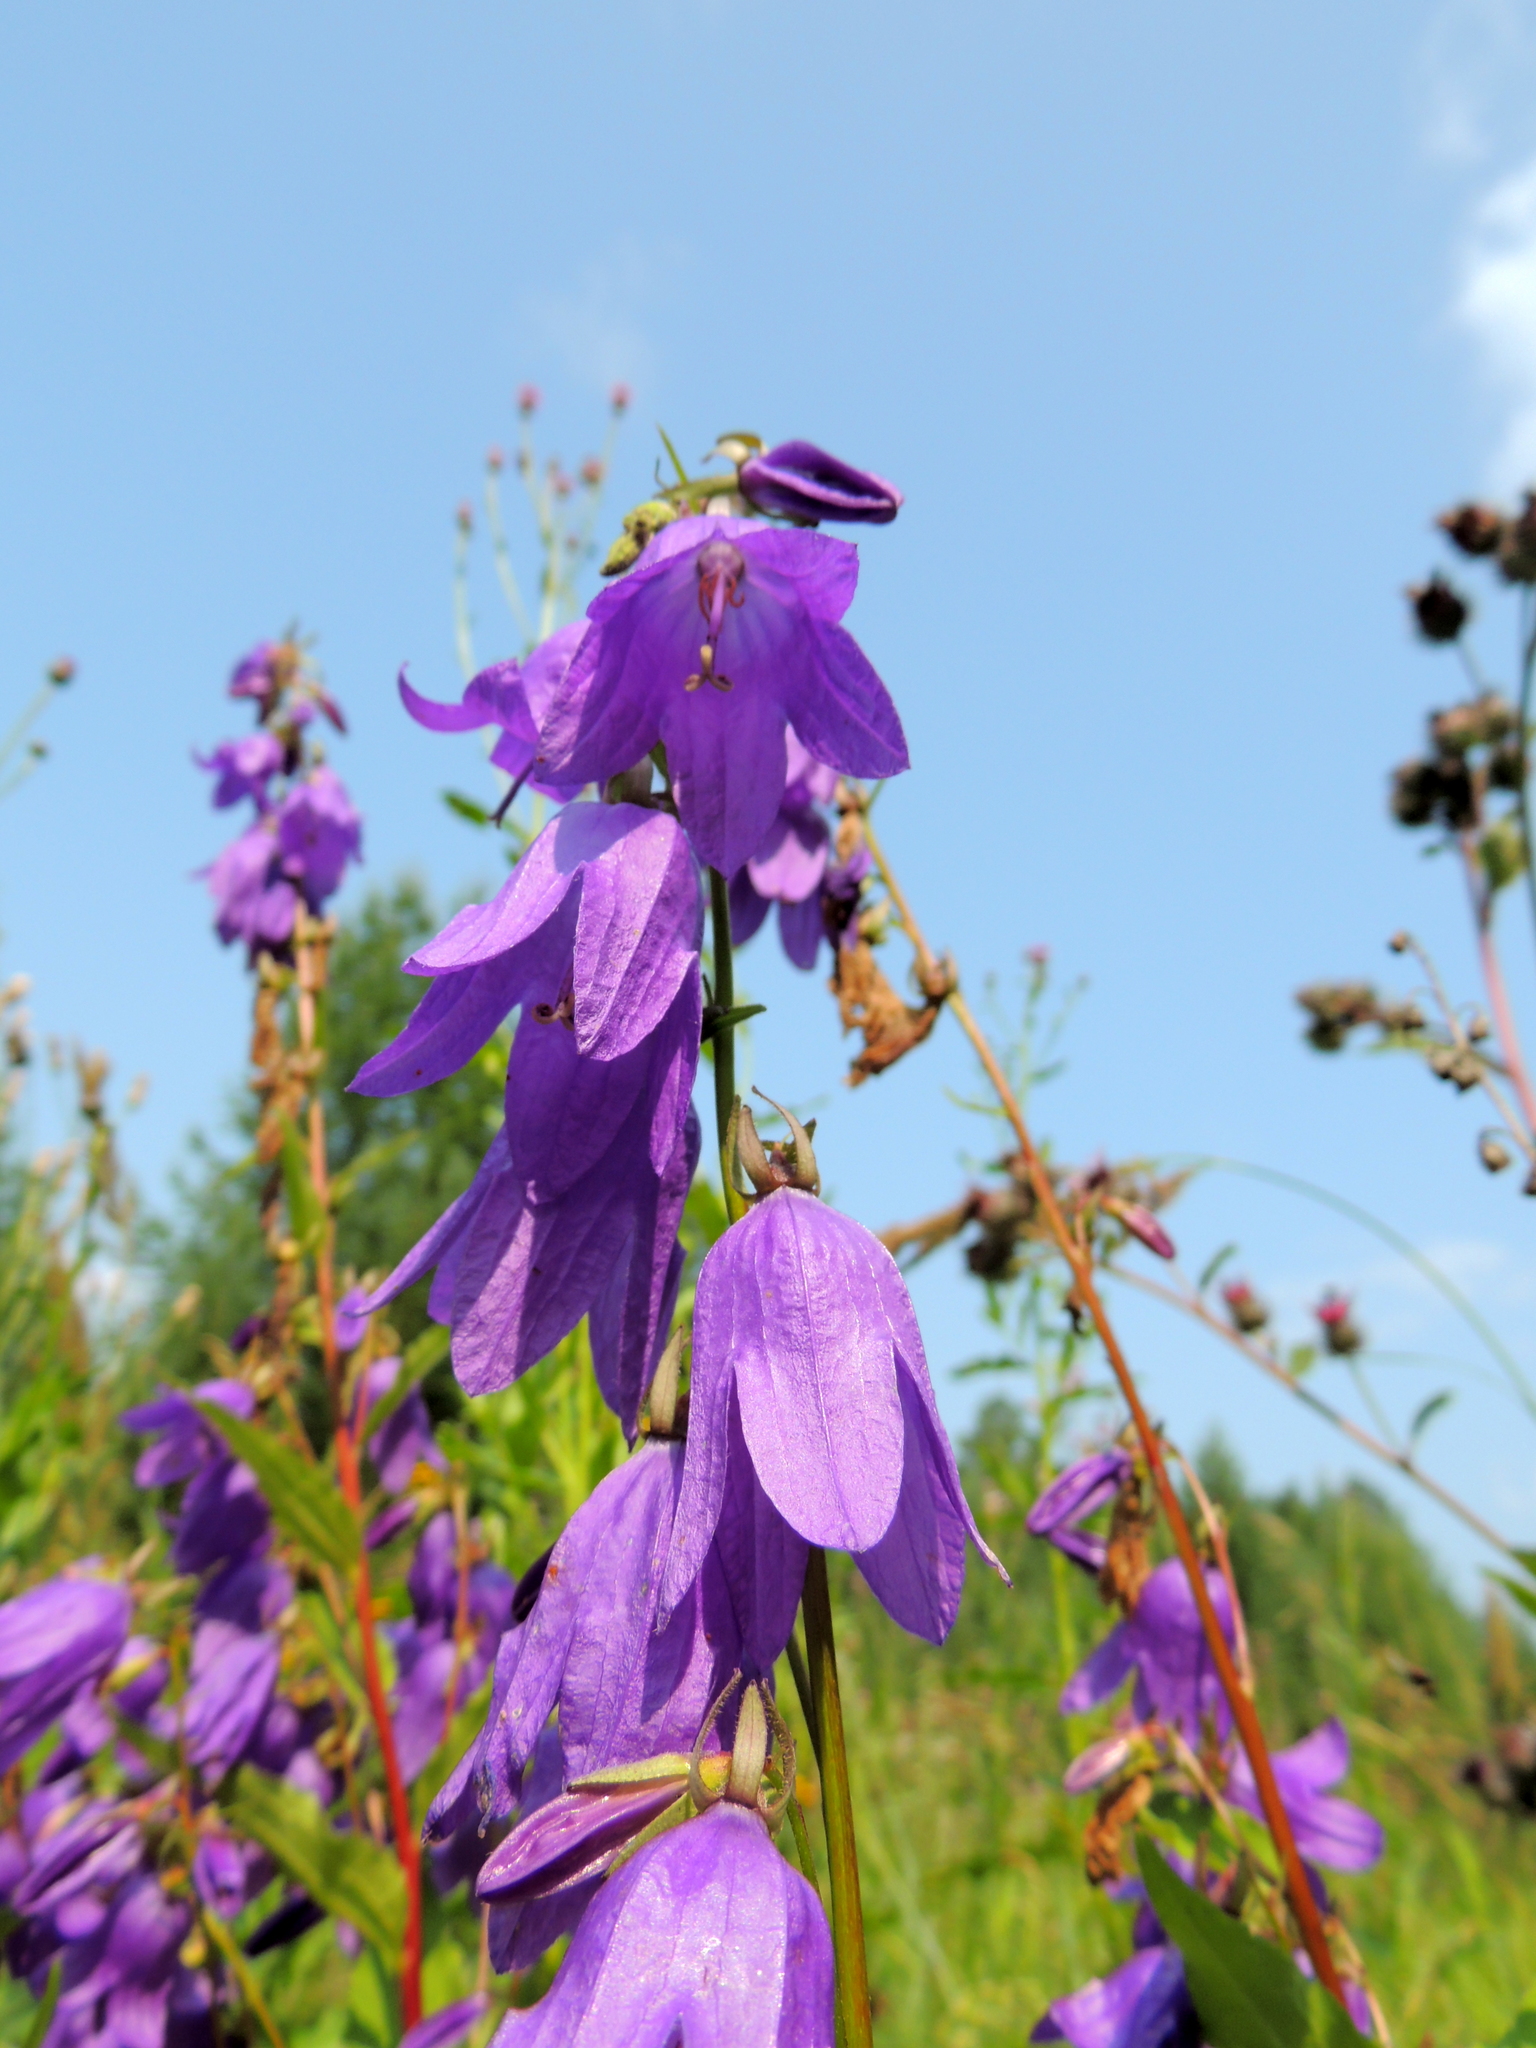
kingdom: Plantae
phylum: Tracheophyta
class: Magnoliopsida
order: Asterales
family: Campanulaceae
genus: Campanula
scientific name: Campanula rapunculoides
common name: Creeping bellflower
